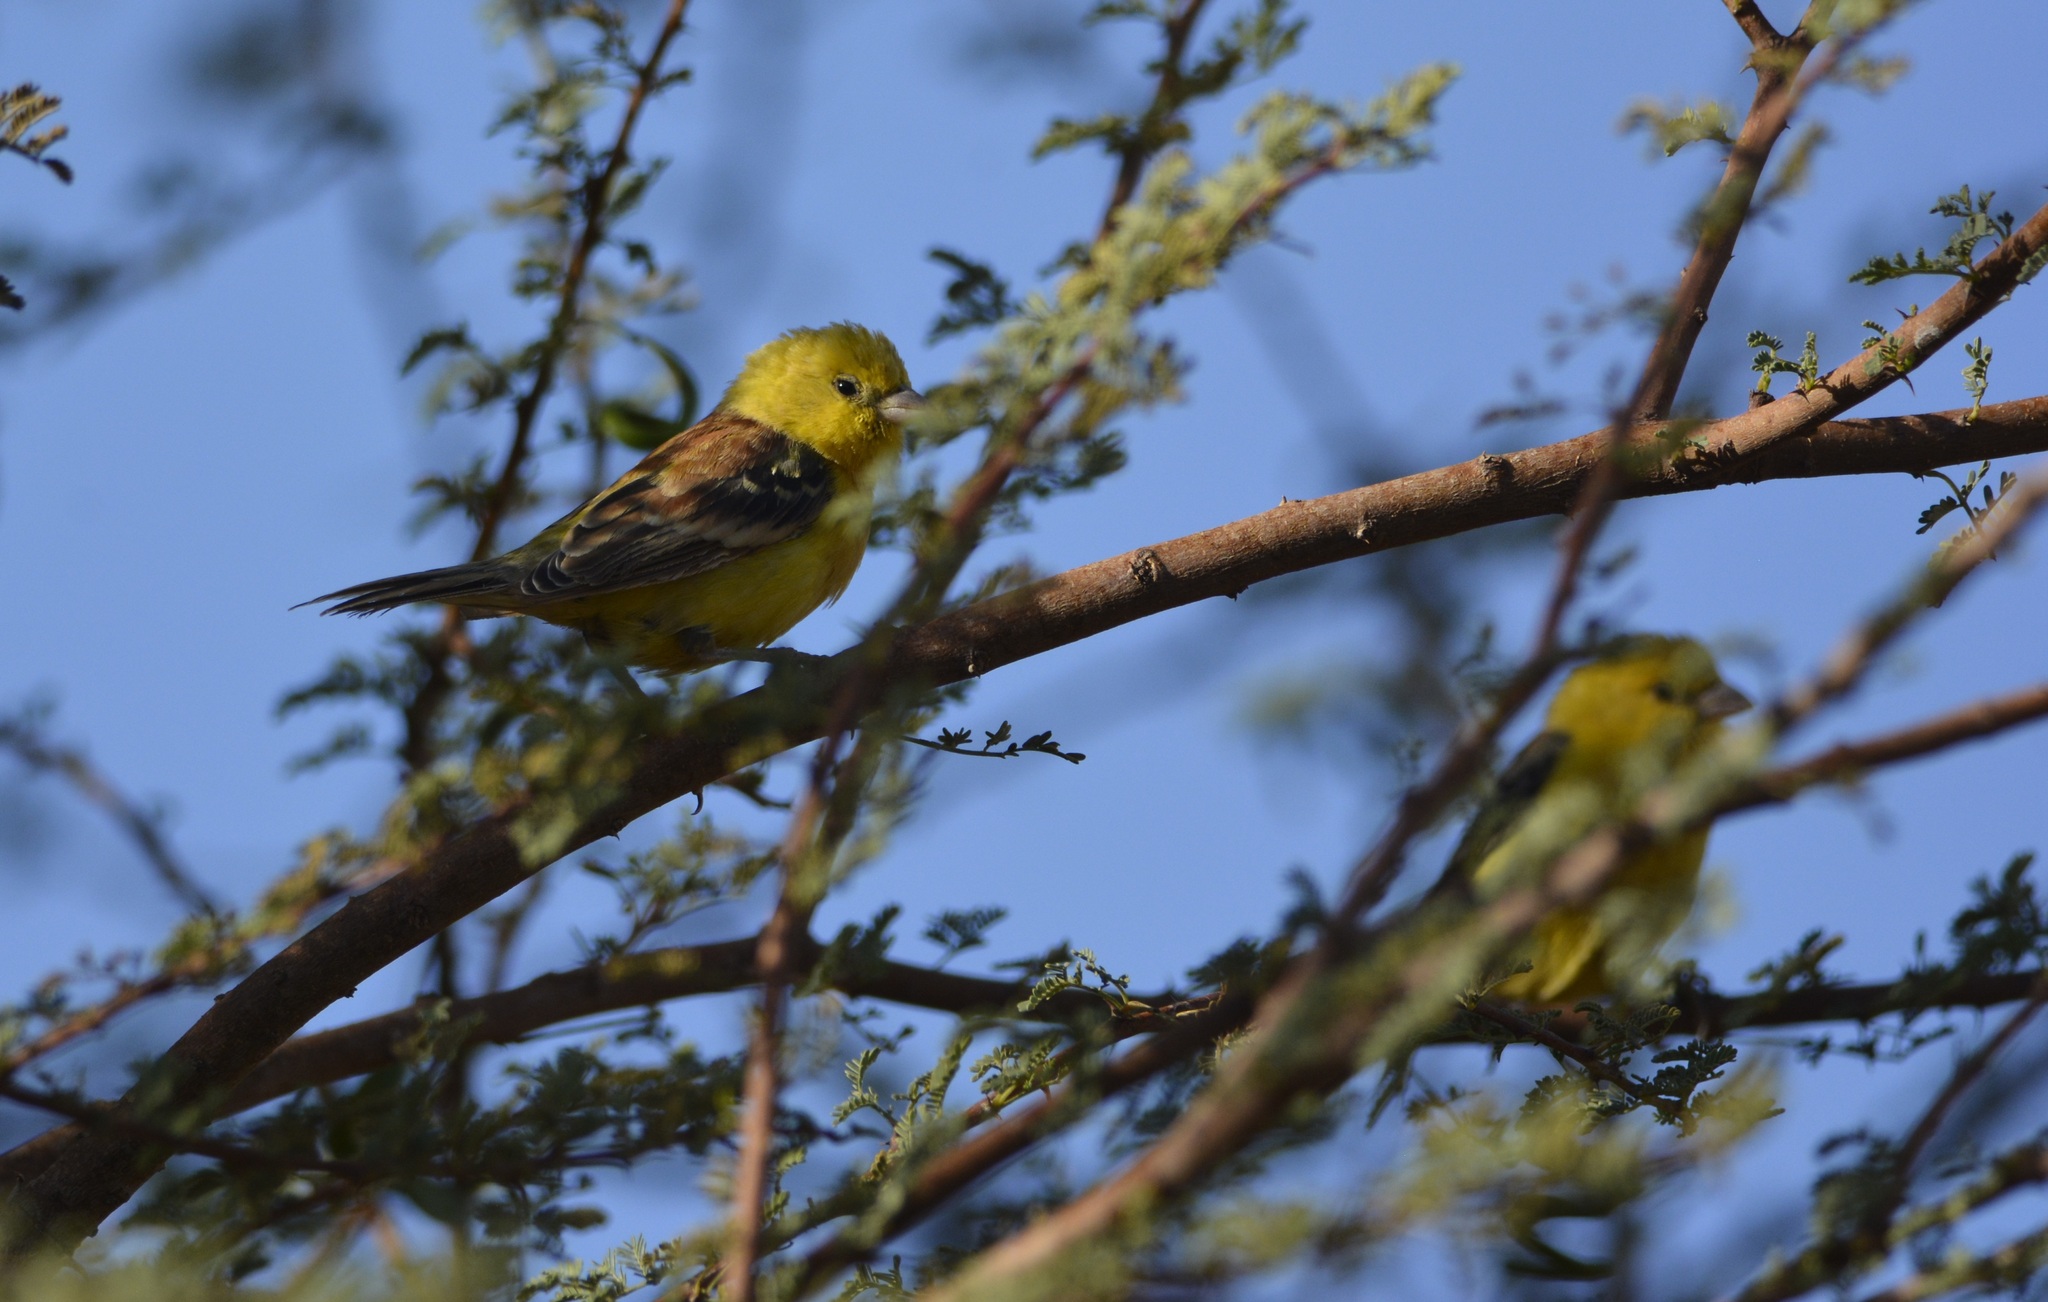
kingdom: Animalia
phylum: Chordata
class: Aves
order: Passeriformes
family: Passeridae
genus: Passer
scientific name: Passer luteus
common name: Sudan golden sparrow
